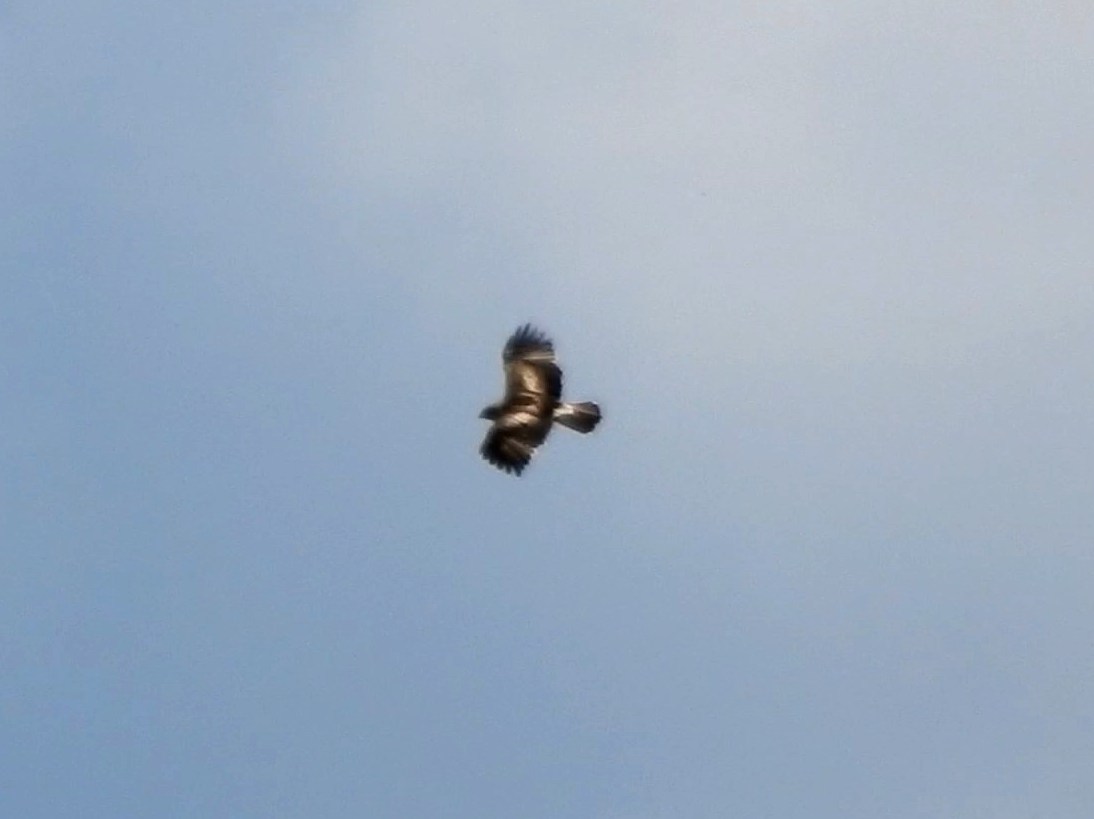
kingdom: Animalia
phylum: Chordata
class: Aves
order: Accipitriformes
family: Accipitridae
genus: Hieraaetus
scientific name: Hieraaetus pennatus
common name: Booted eagle
